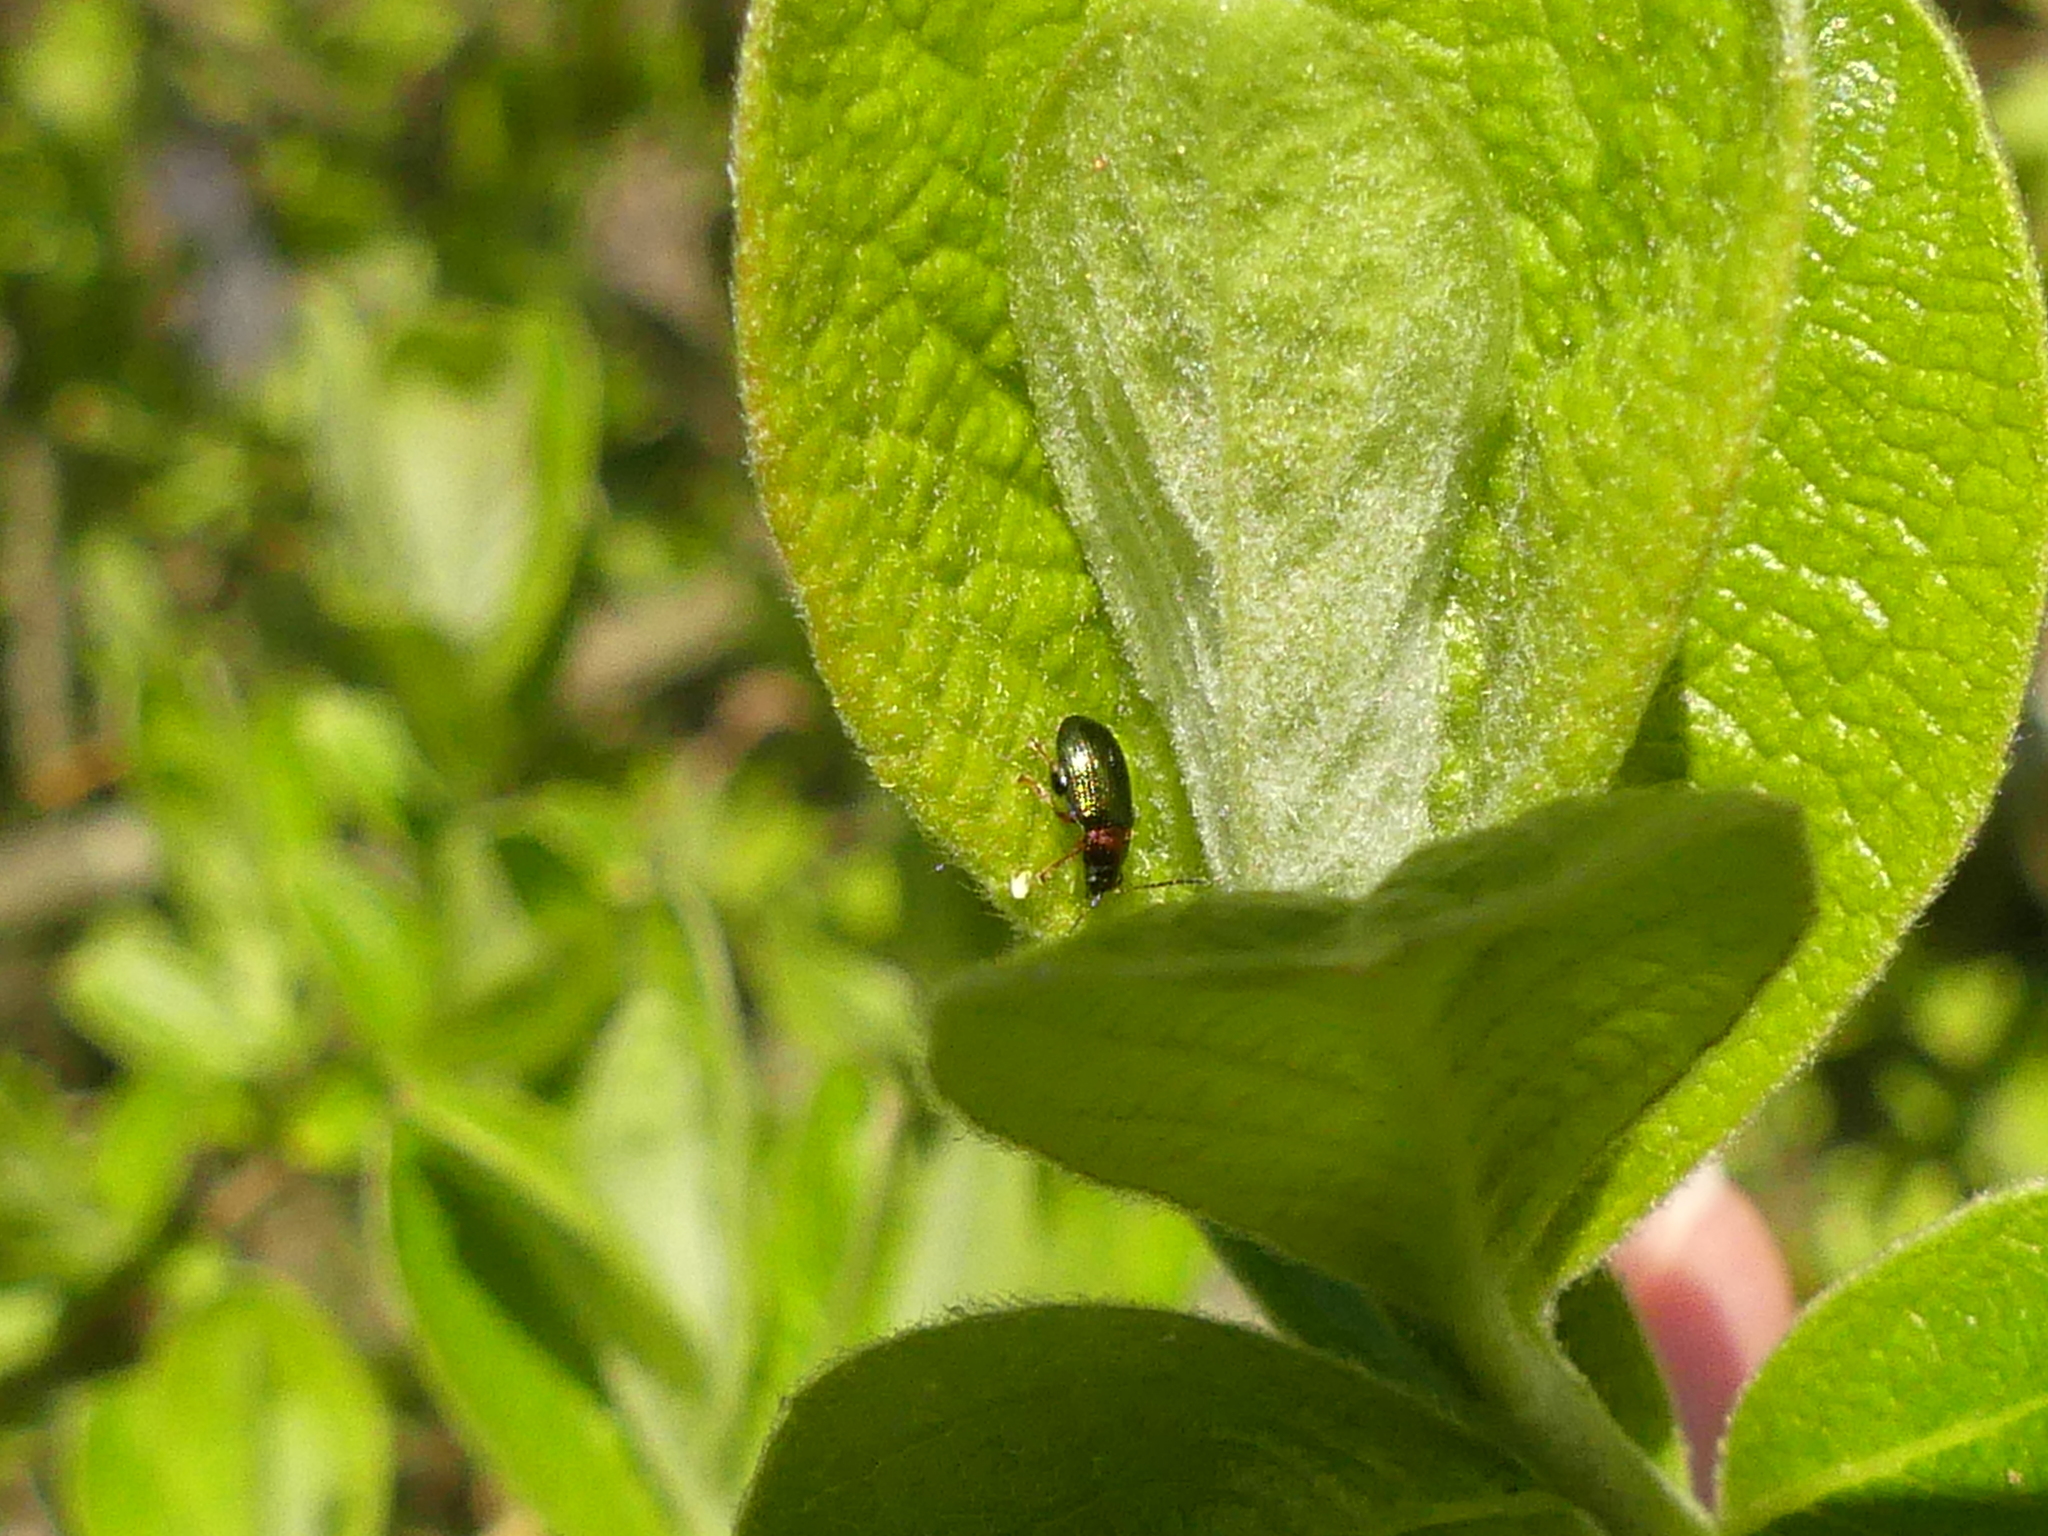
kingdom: Animalia
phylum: Arthropoda
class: Insecta
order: Coleoptera
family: Chrysomelidae
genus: Crepidodera
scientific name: Crepidodera aurata
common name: Willow flea beetle
